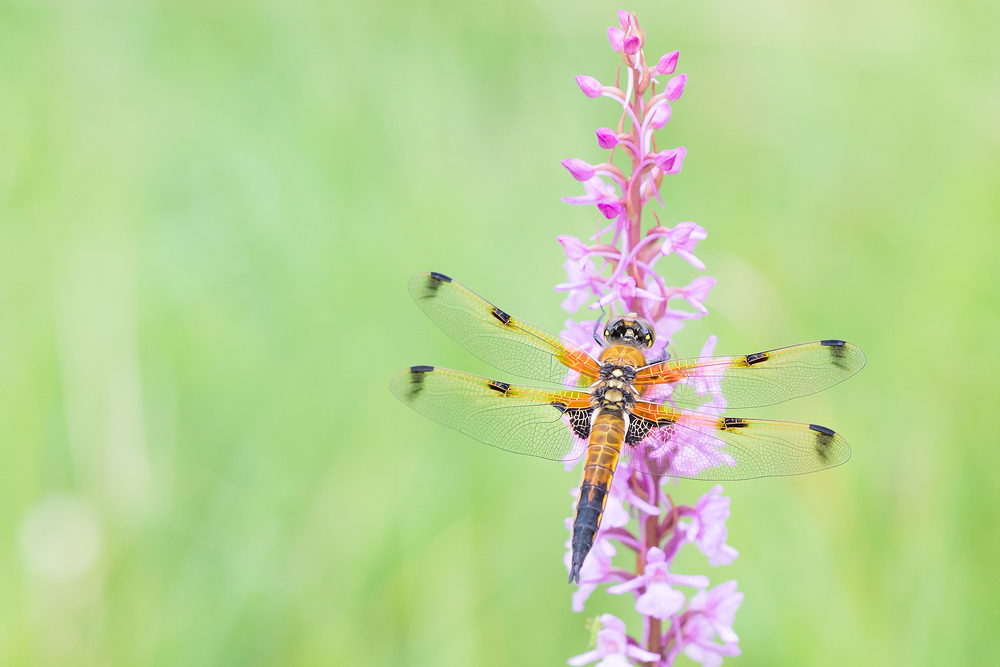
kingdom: Animalia
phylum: Arthropoda
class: Insecta
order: Odonata
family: Libellulidae
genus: Libellula
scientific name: Libellula quadrimaculata
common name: Four-spotted chaser
